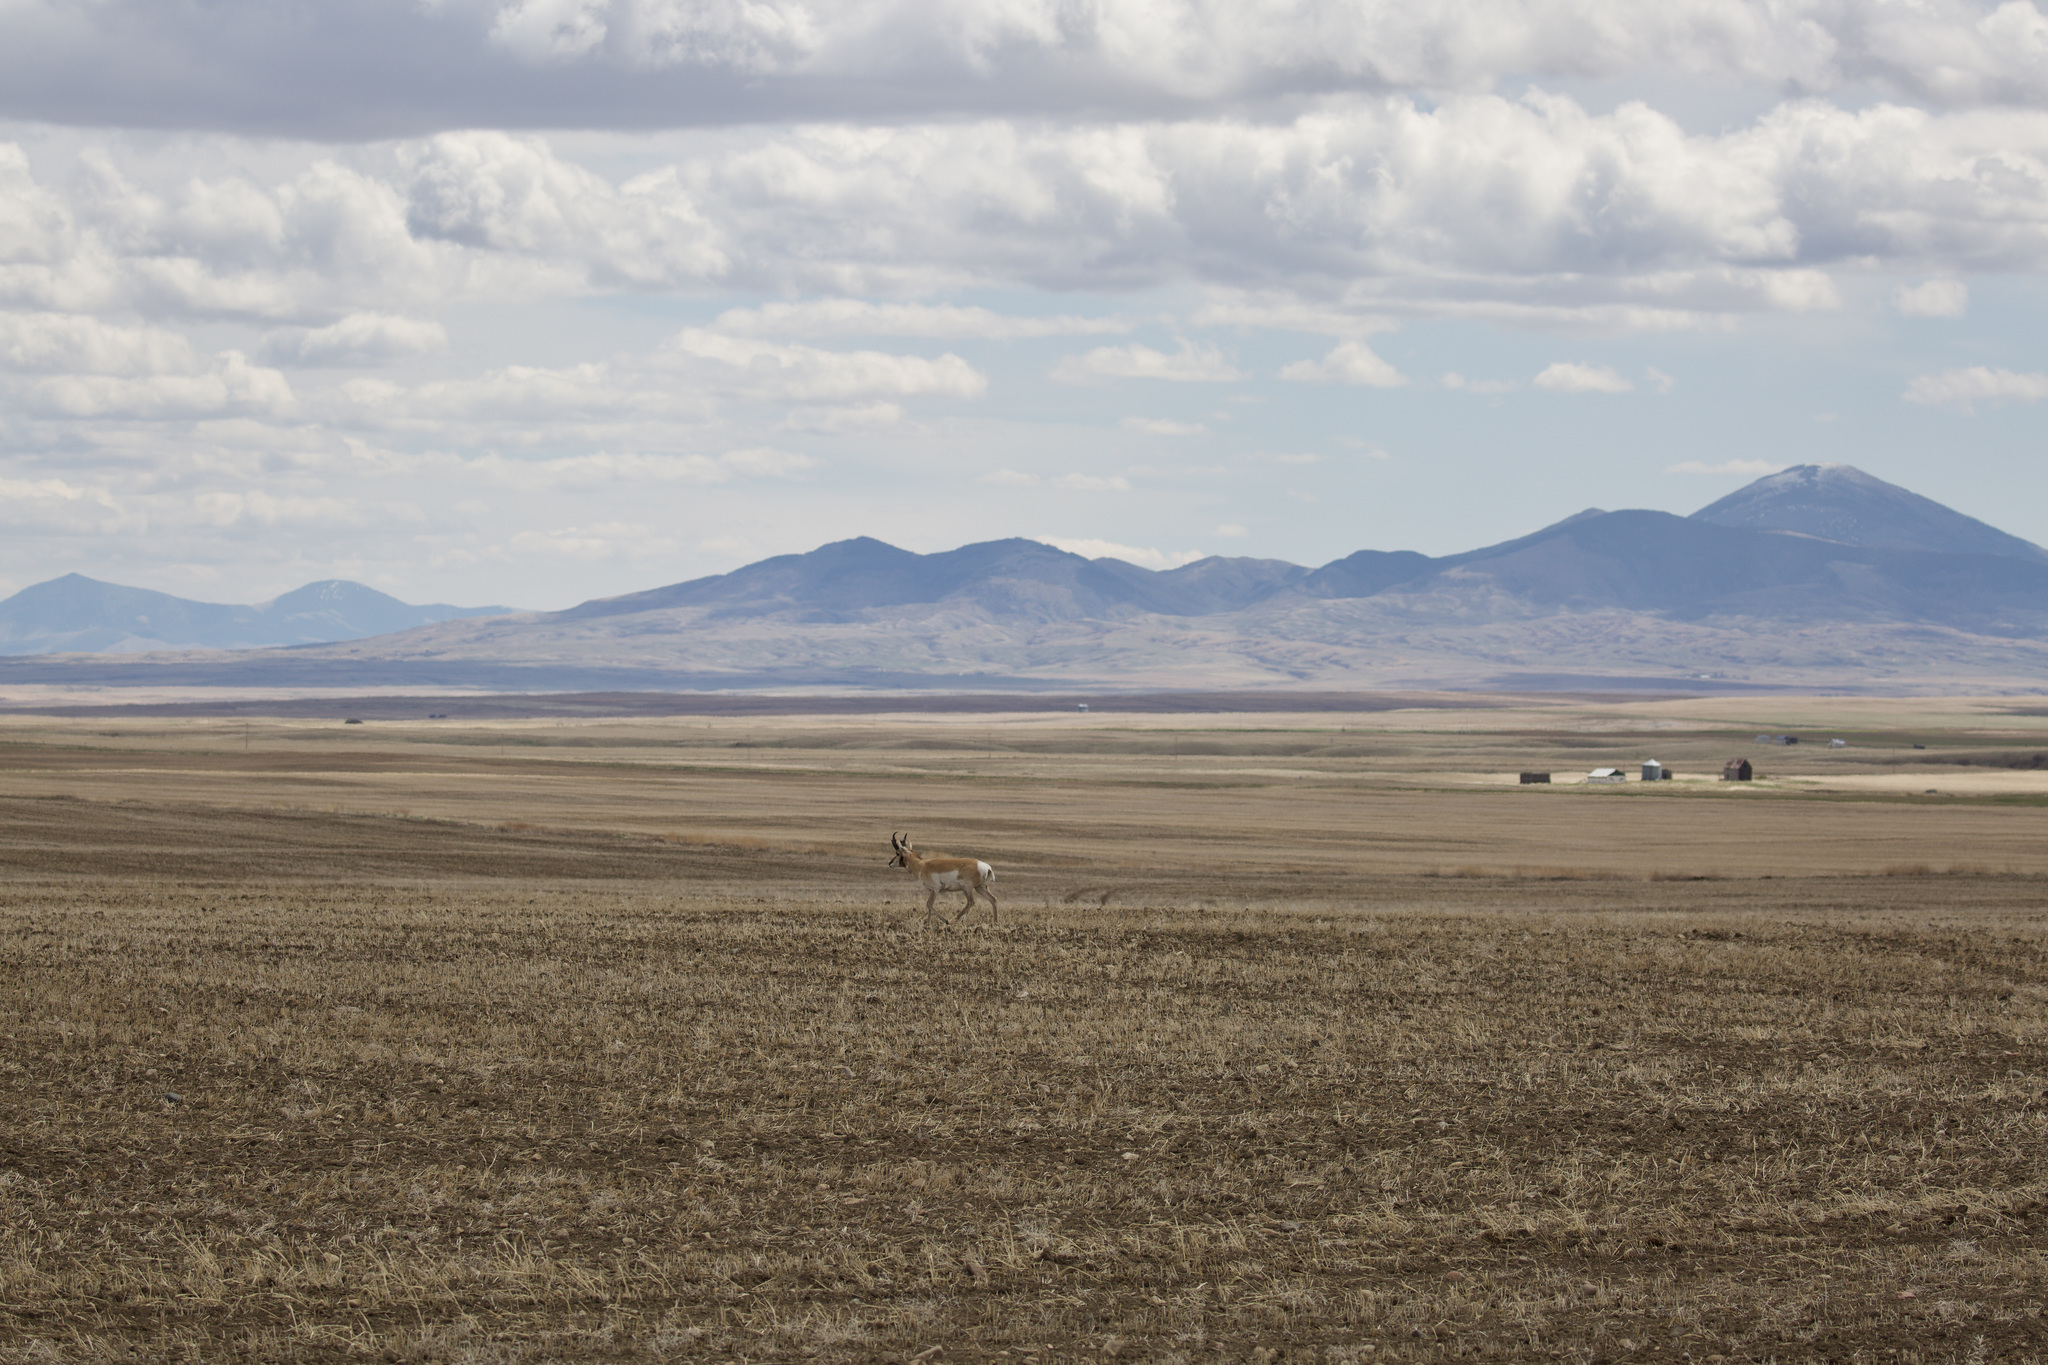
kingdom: Animalia
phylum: Chordata
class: Mammalia
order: Artiodactyla
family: Antilocapridae
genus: Antilocapra
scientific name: Antilocapra americana
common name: Pronghorn
